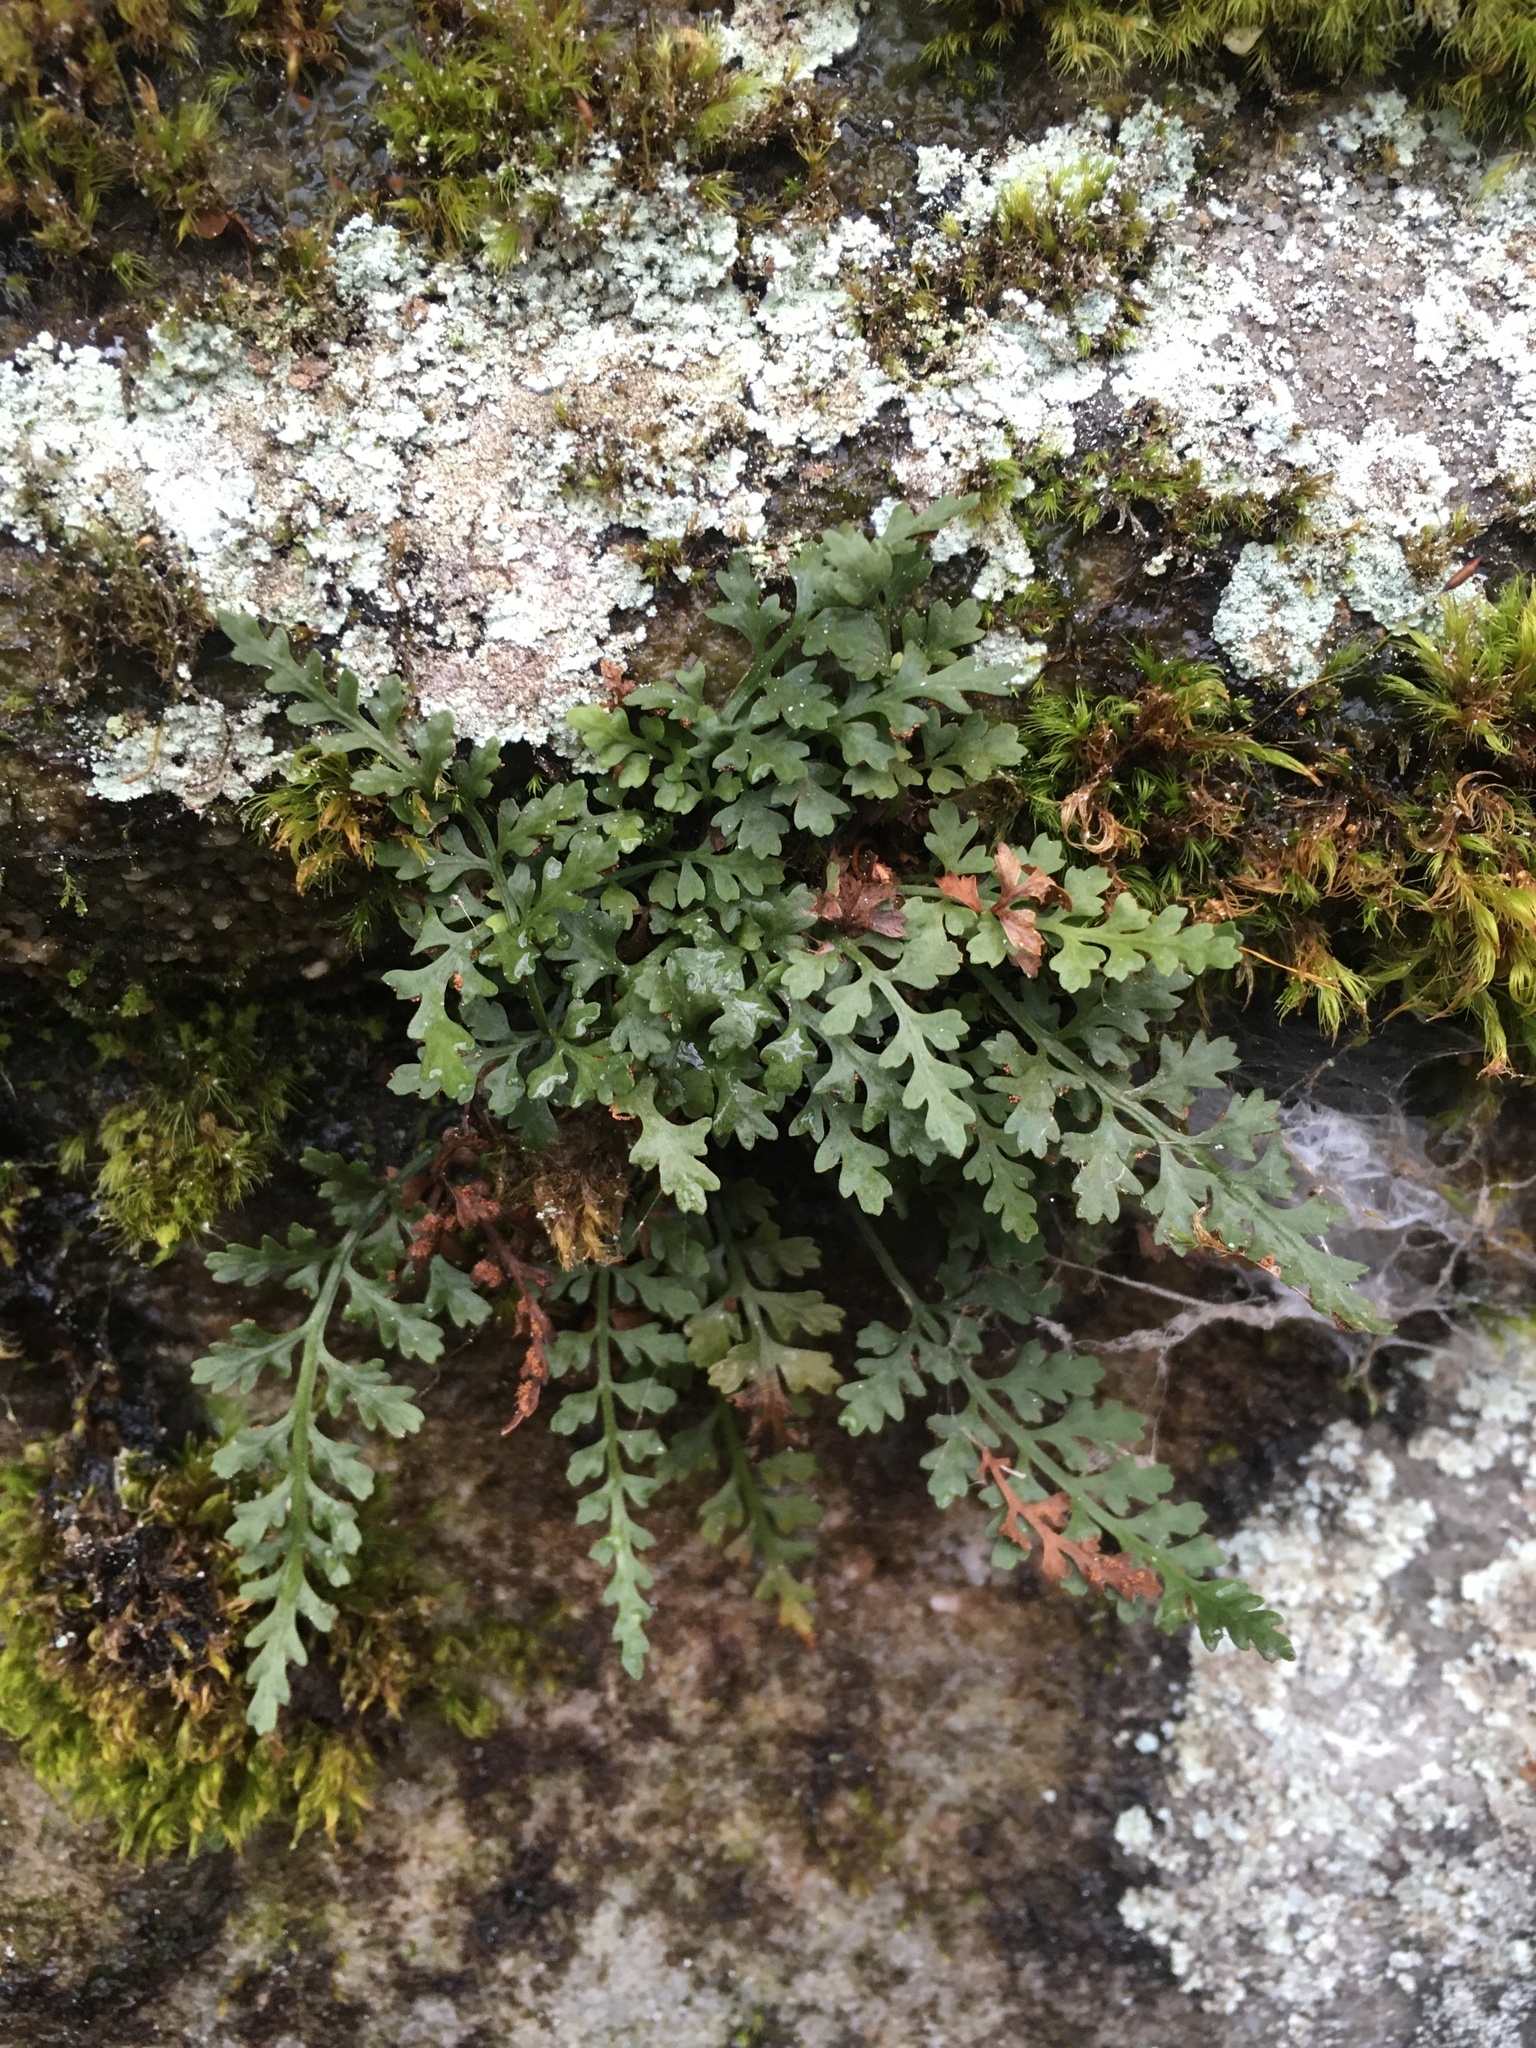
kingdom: Plantae
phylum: Tracheophyta
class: Polypodiopsida
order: Polypodiales
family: Aspleniaceae
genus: Asplenium
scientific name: Asplenium montanum
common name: Mountain spleenwort
